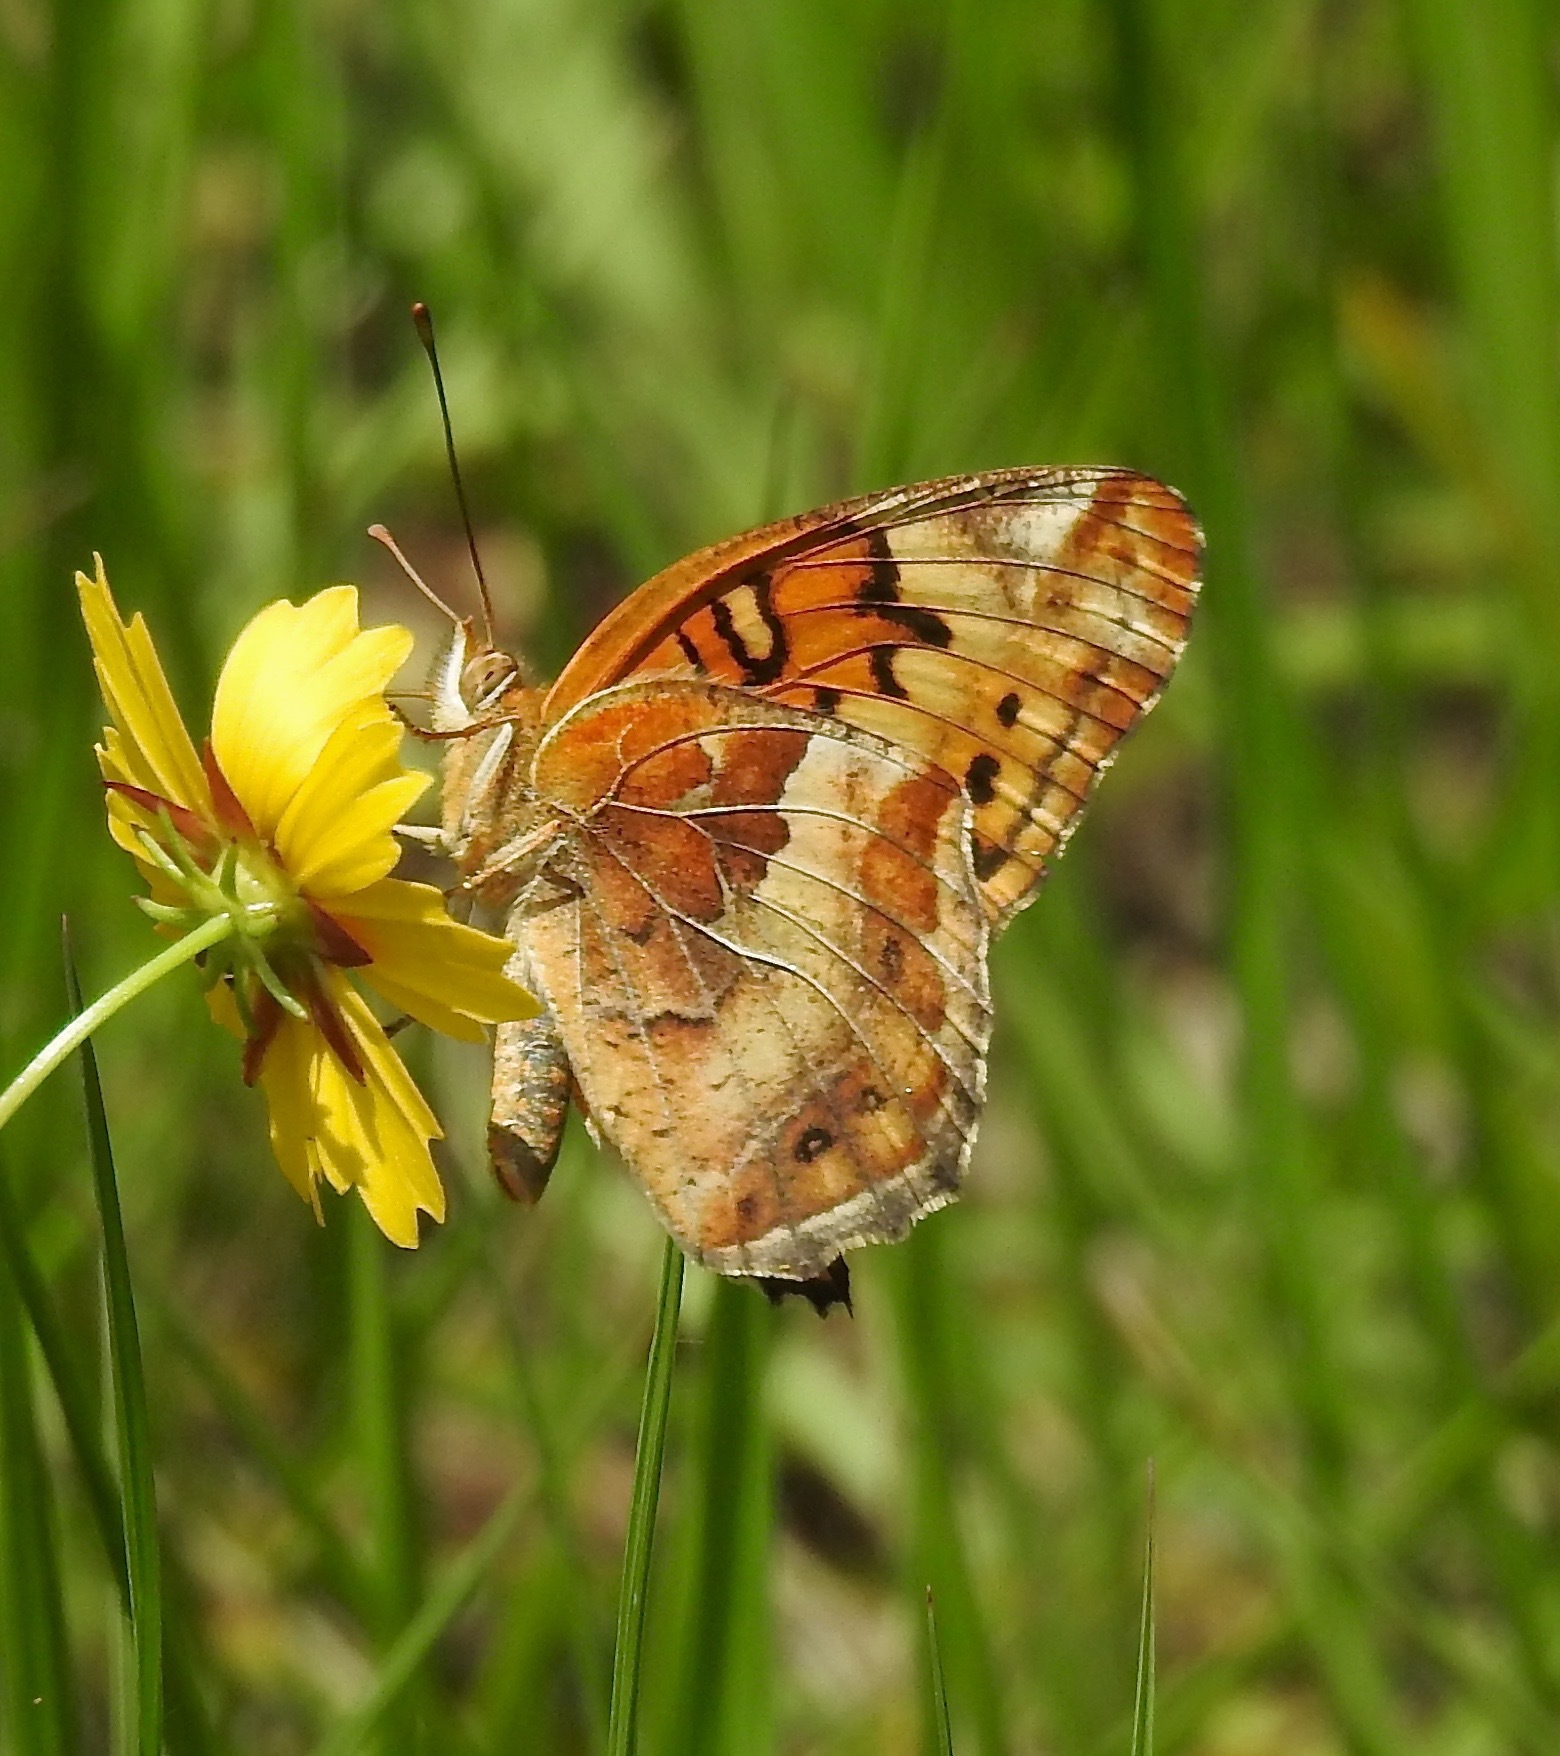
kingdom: Animalia
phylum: Arthropoda
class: Insecta
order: Lepidoptera
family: Nymphalidae
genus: Euptoieta
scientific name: Euptoieta claudia
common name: Variegated fritillary
